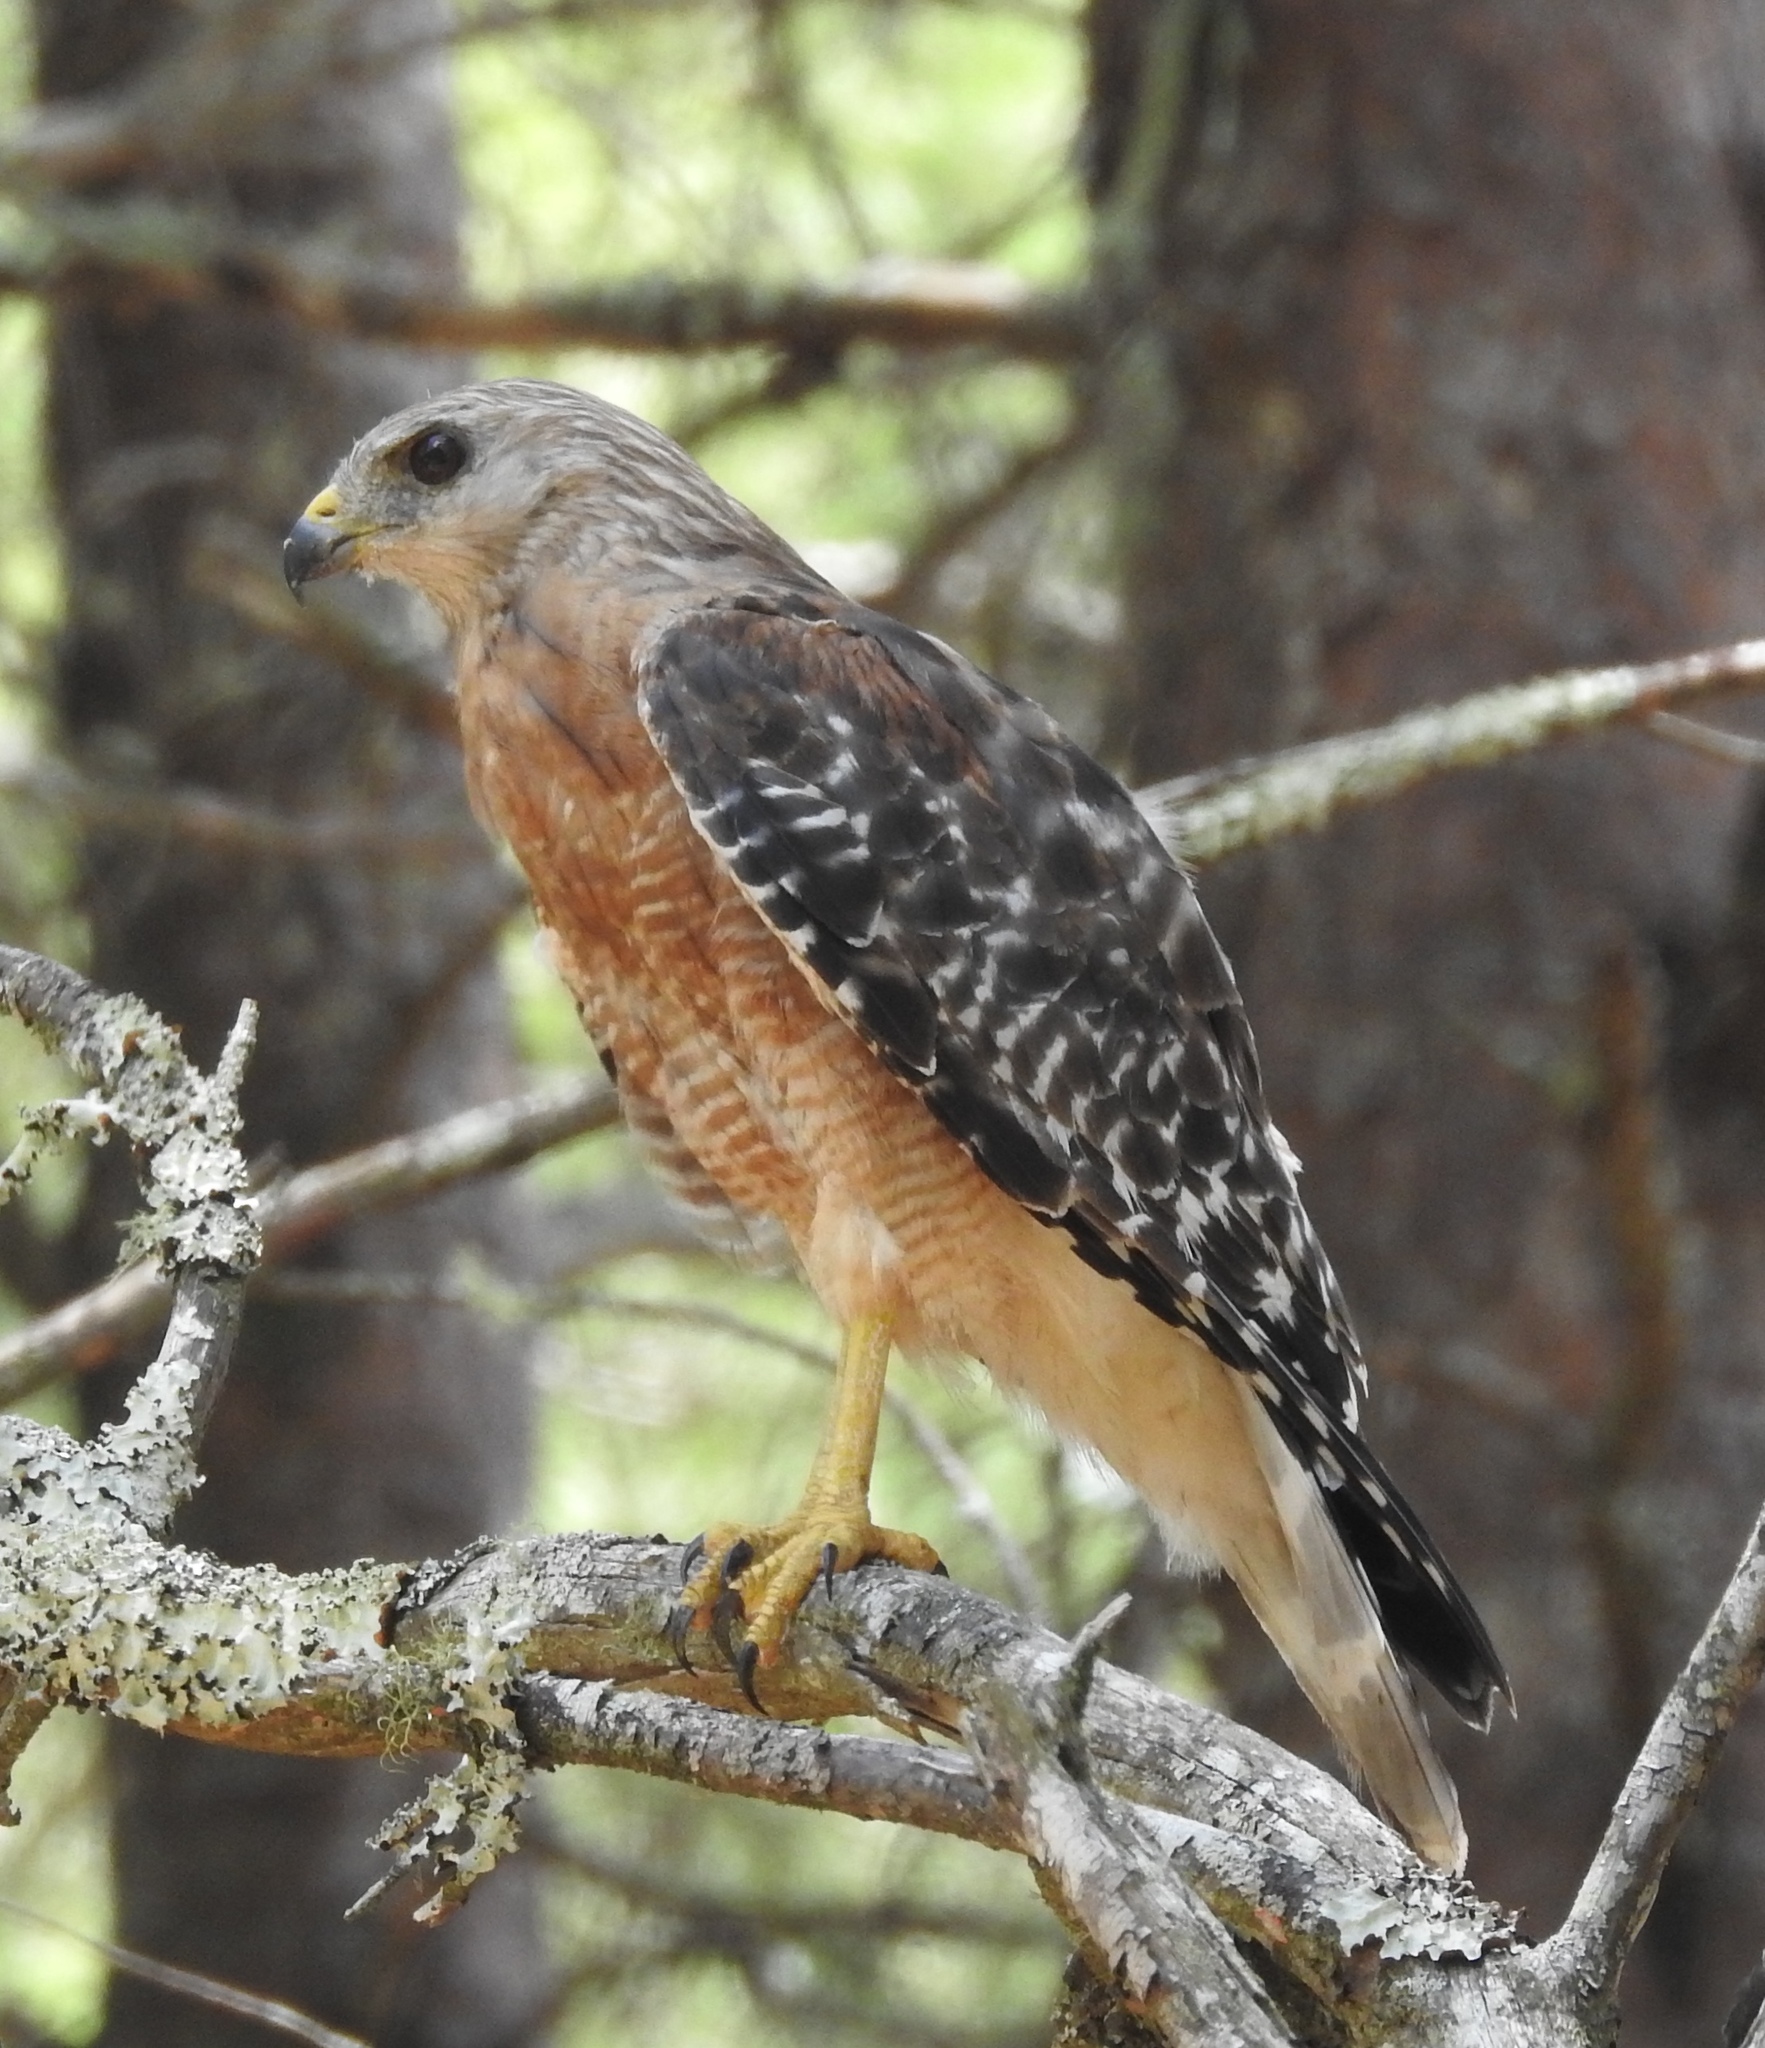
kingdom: Animalia
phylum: Chordata
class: Aves
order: Accipitriformes
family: Accipitridae
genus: Buteo
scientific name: Buteo lineatus
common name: Red-shouldered hawk
